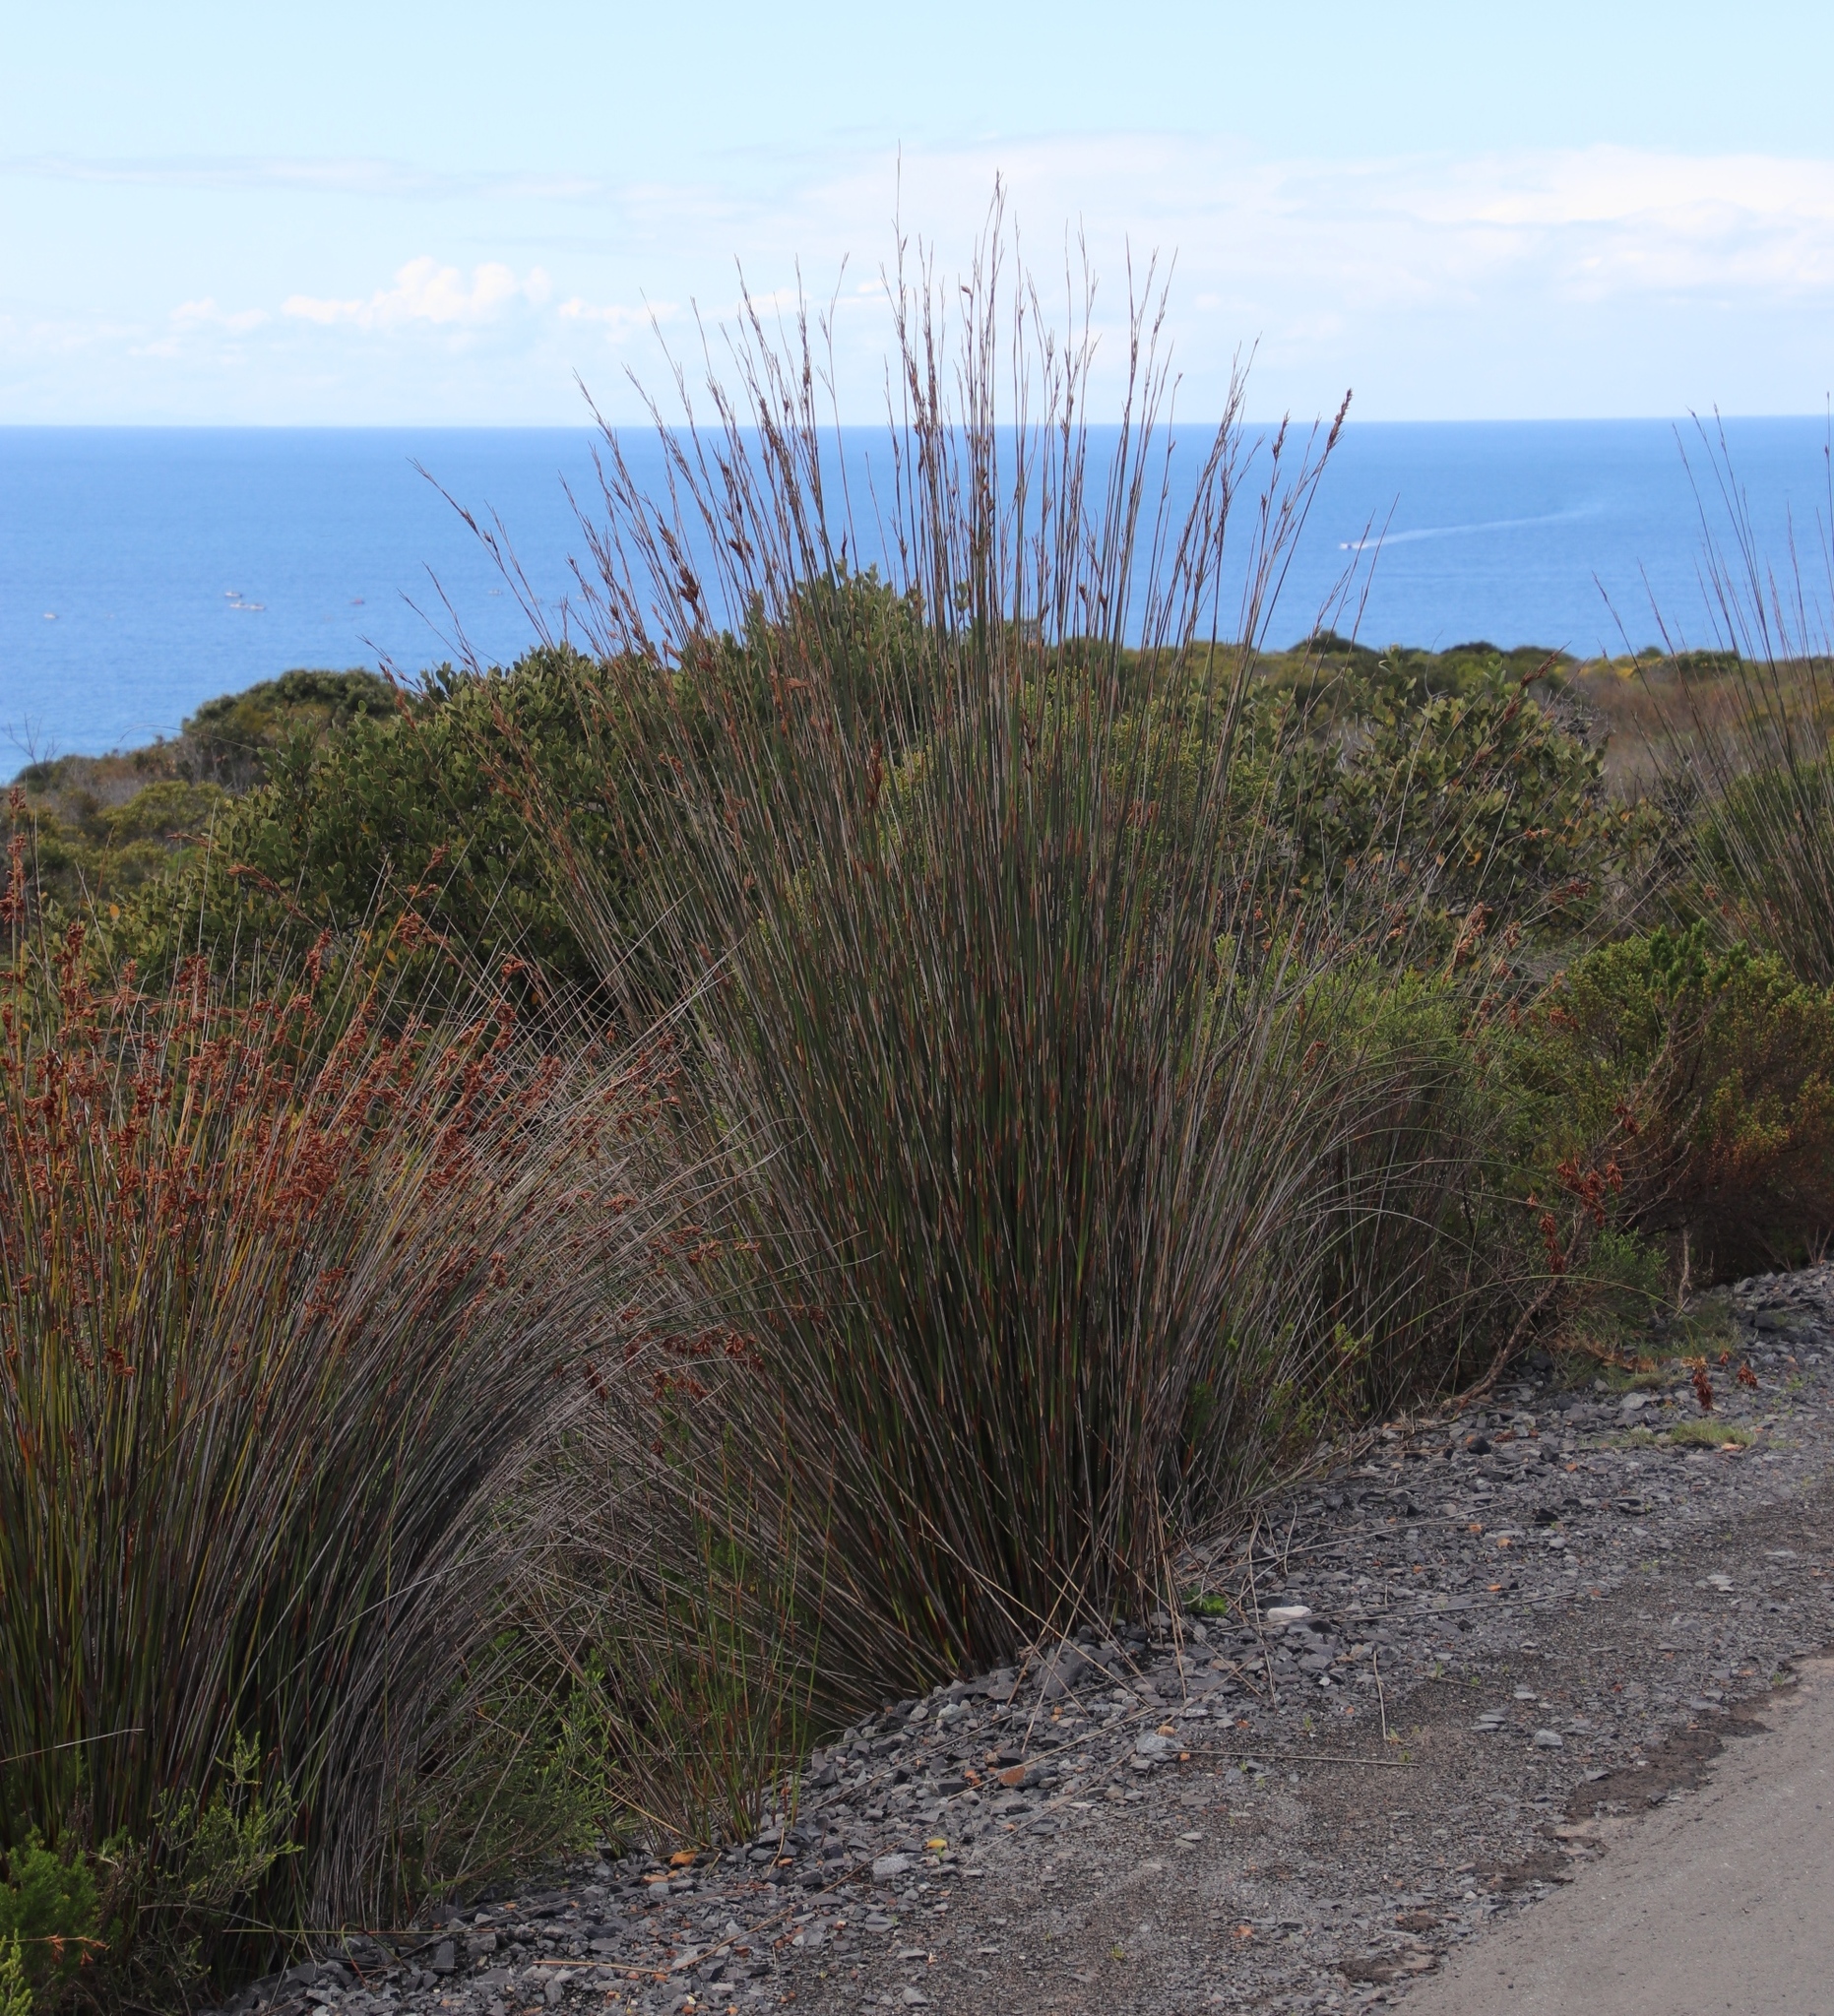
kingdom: Plantae
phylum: Tracheophyta
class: Liliopsida
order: Poales
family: Restionaceae
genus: Thamnochortus
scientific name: Thamnochortus insignis
